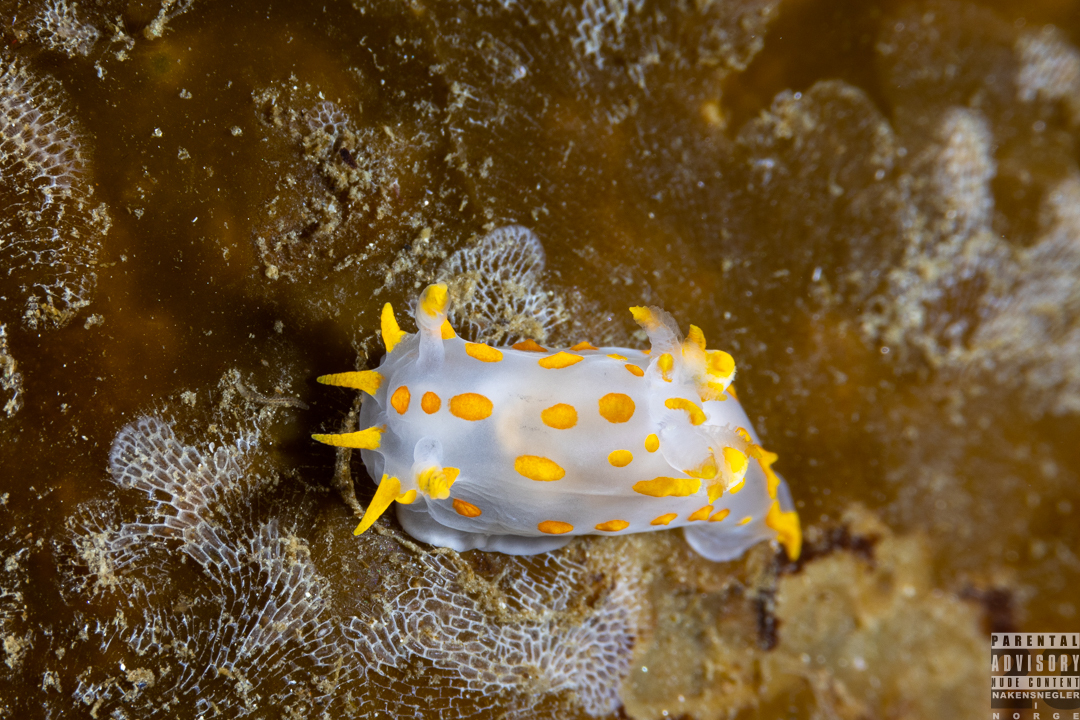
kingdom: Animalia
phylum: Mollusca
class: Gastropoda
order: Nudibranchia
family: Polyceridae
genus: Polycera
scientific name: Polycera quadrilineata
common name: Four-striped polycera
